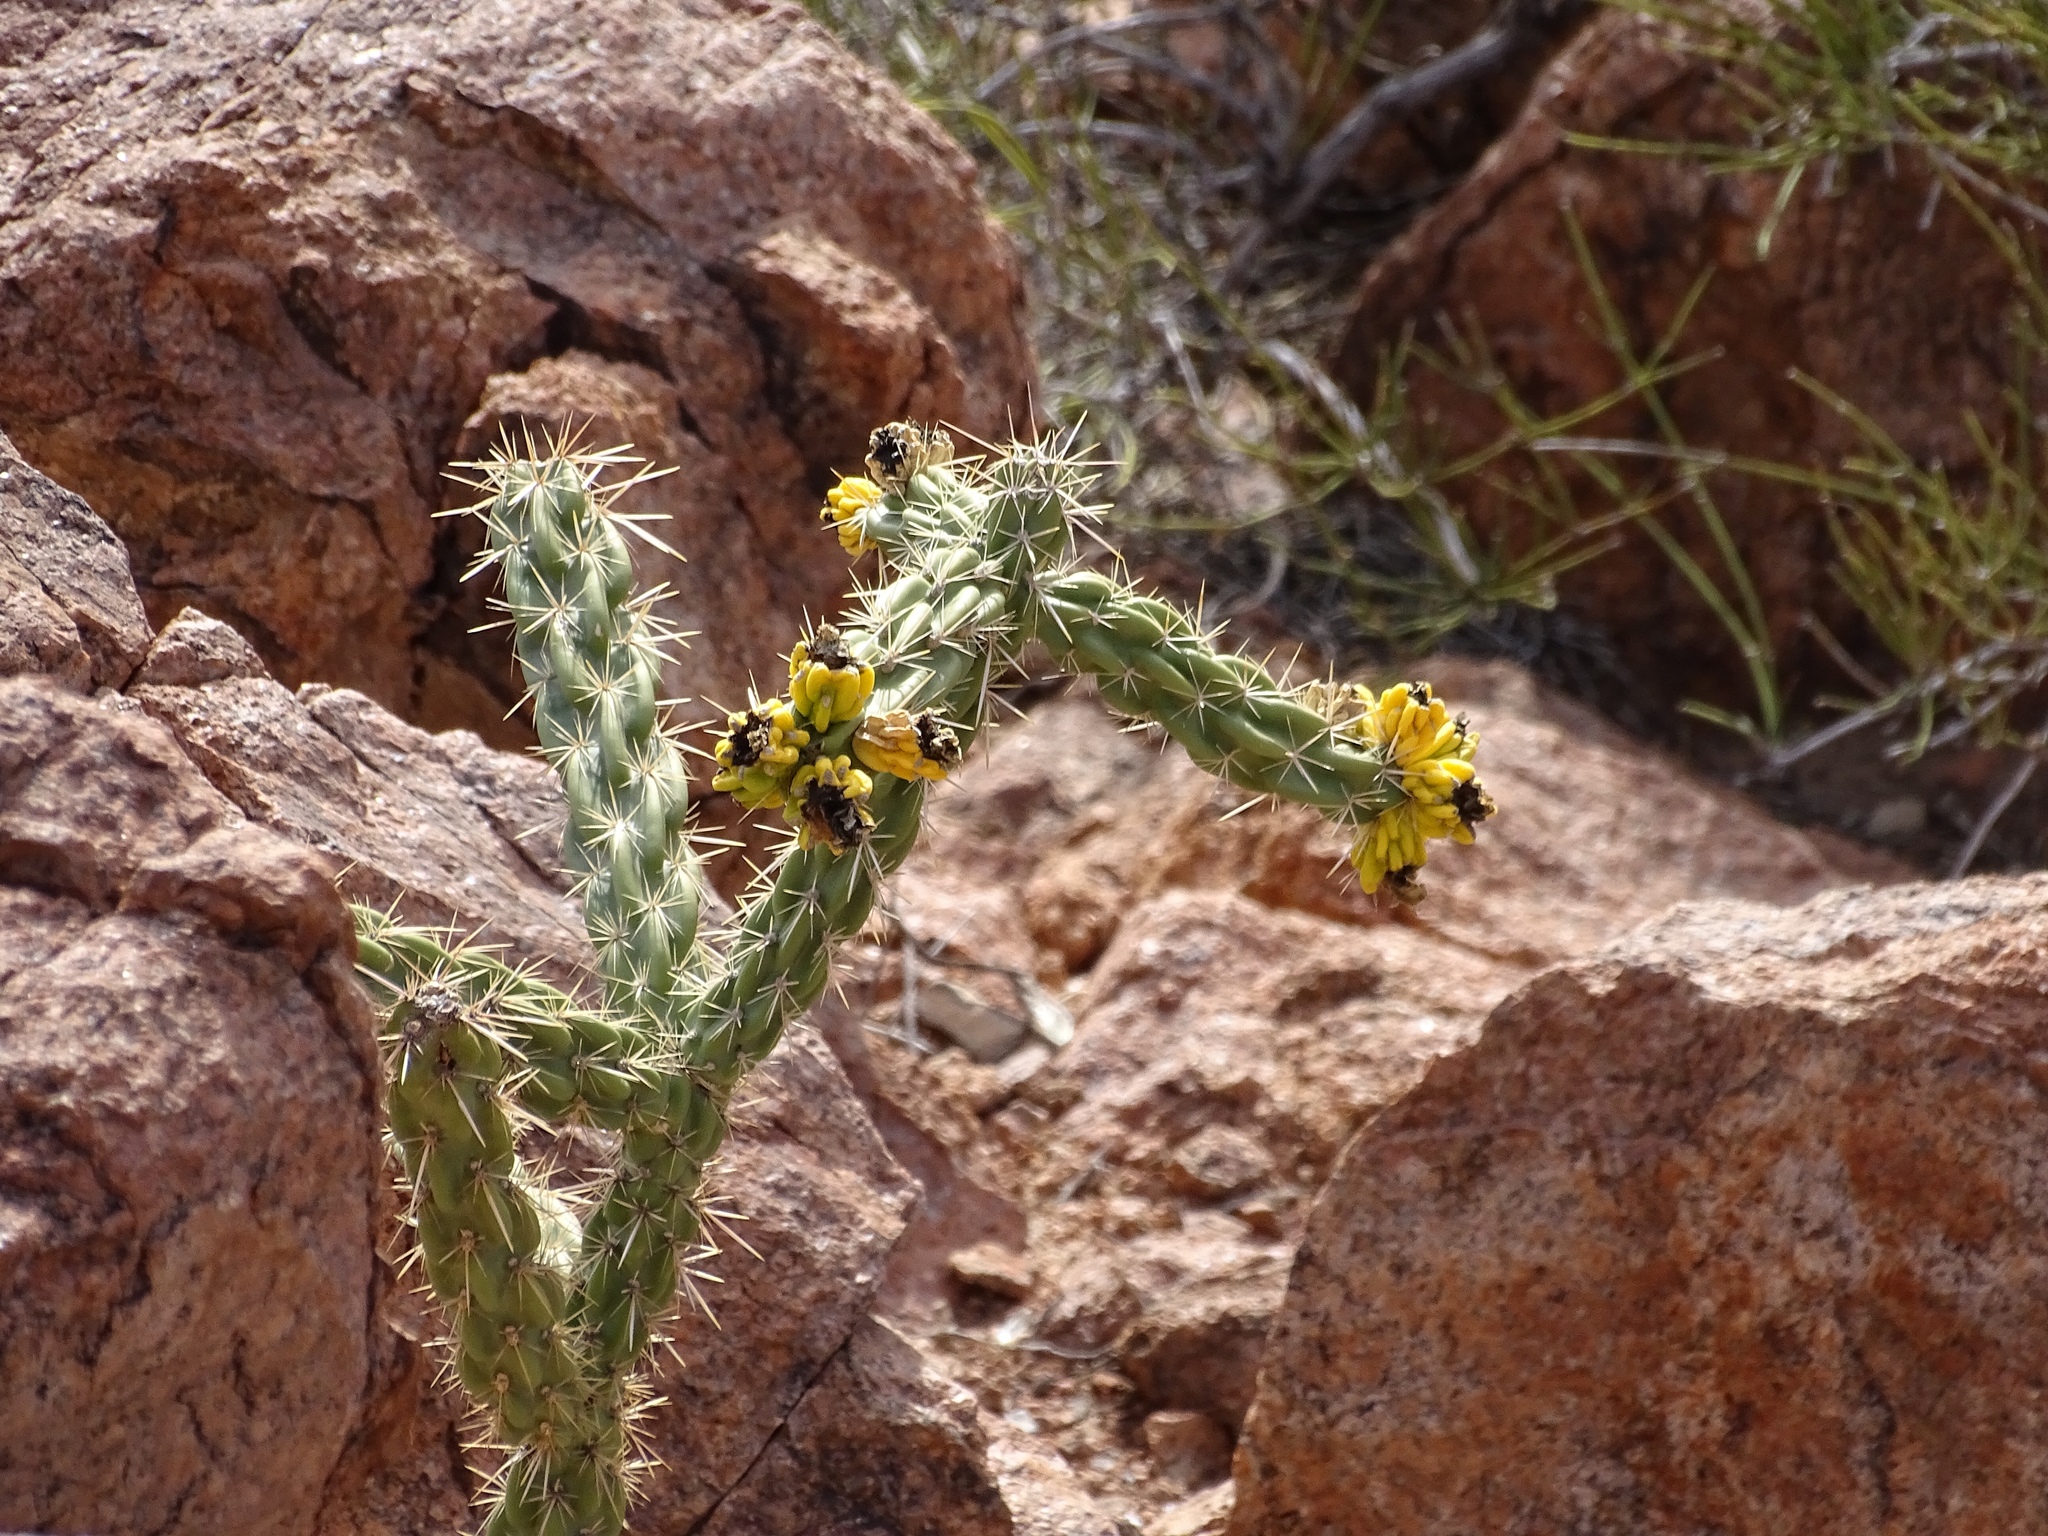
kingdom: Plantae
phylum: Tracheophyta
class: Magnoliopsida
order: Caryophyllales
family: Cactaceae
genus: Cylindropuntia
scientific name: Cylindropuntia imbricata
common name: Candelabrum cactus
